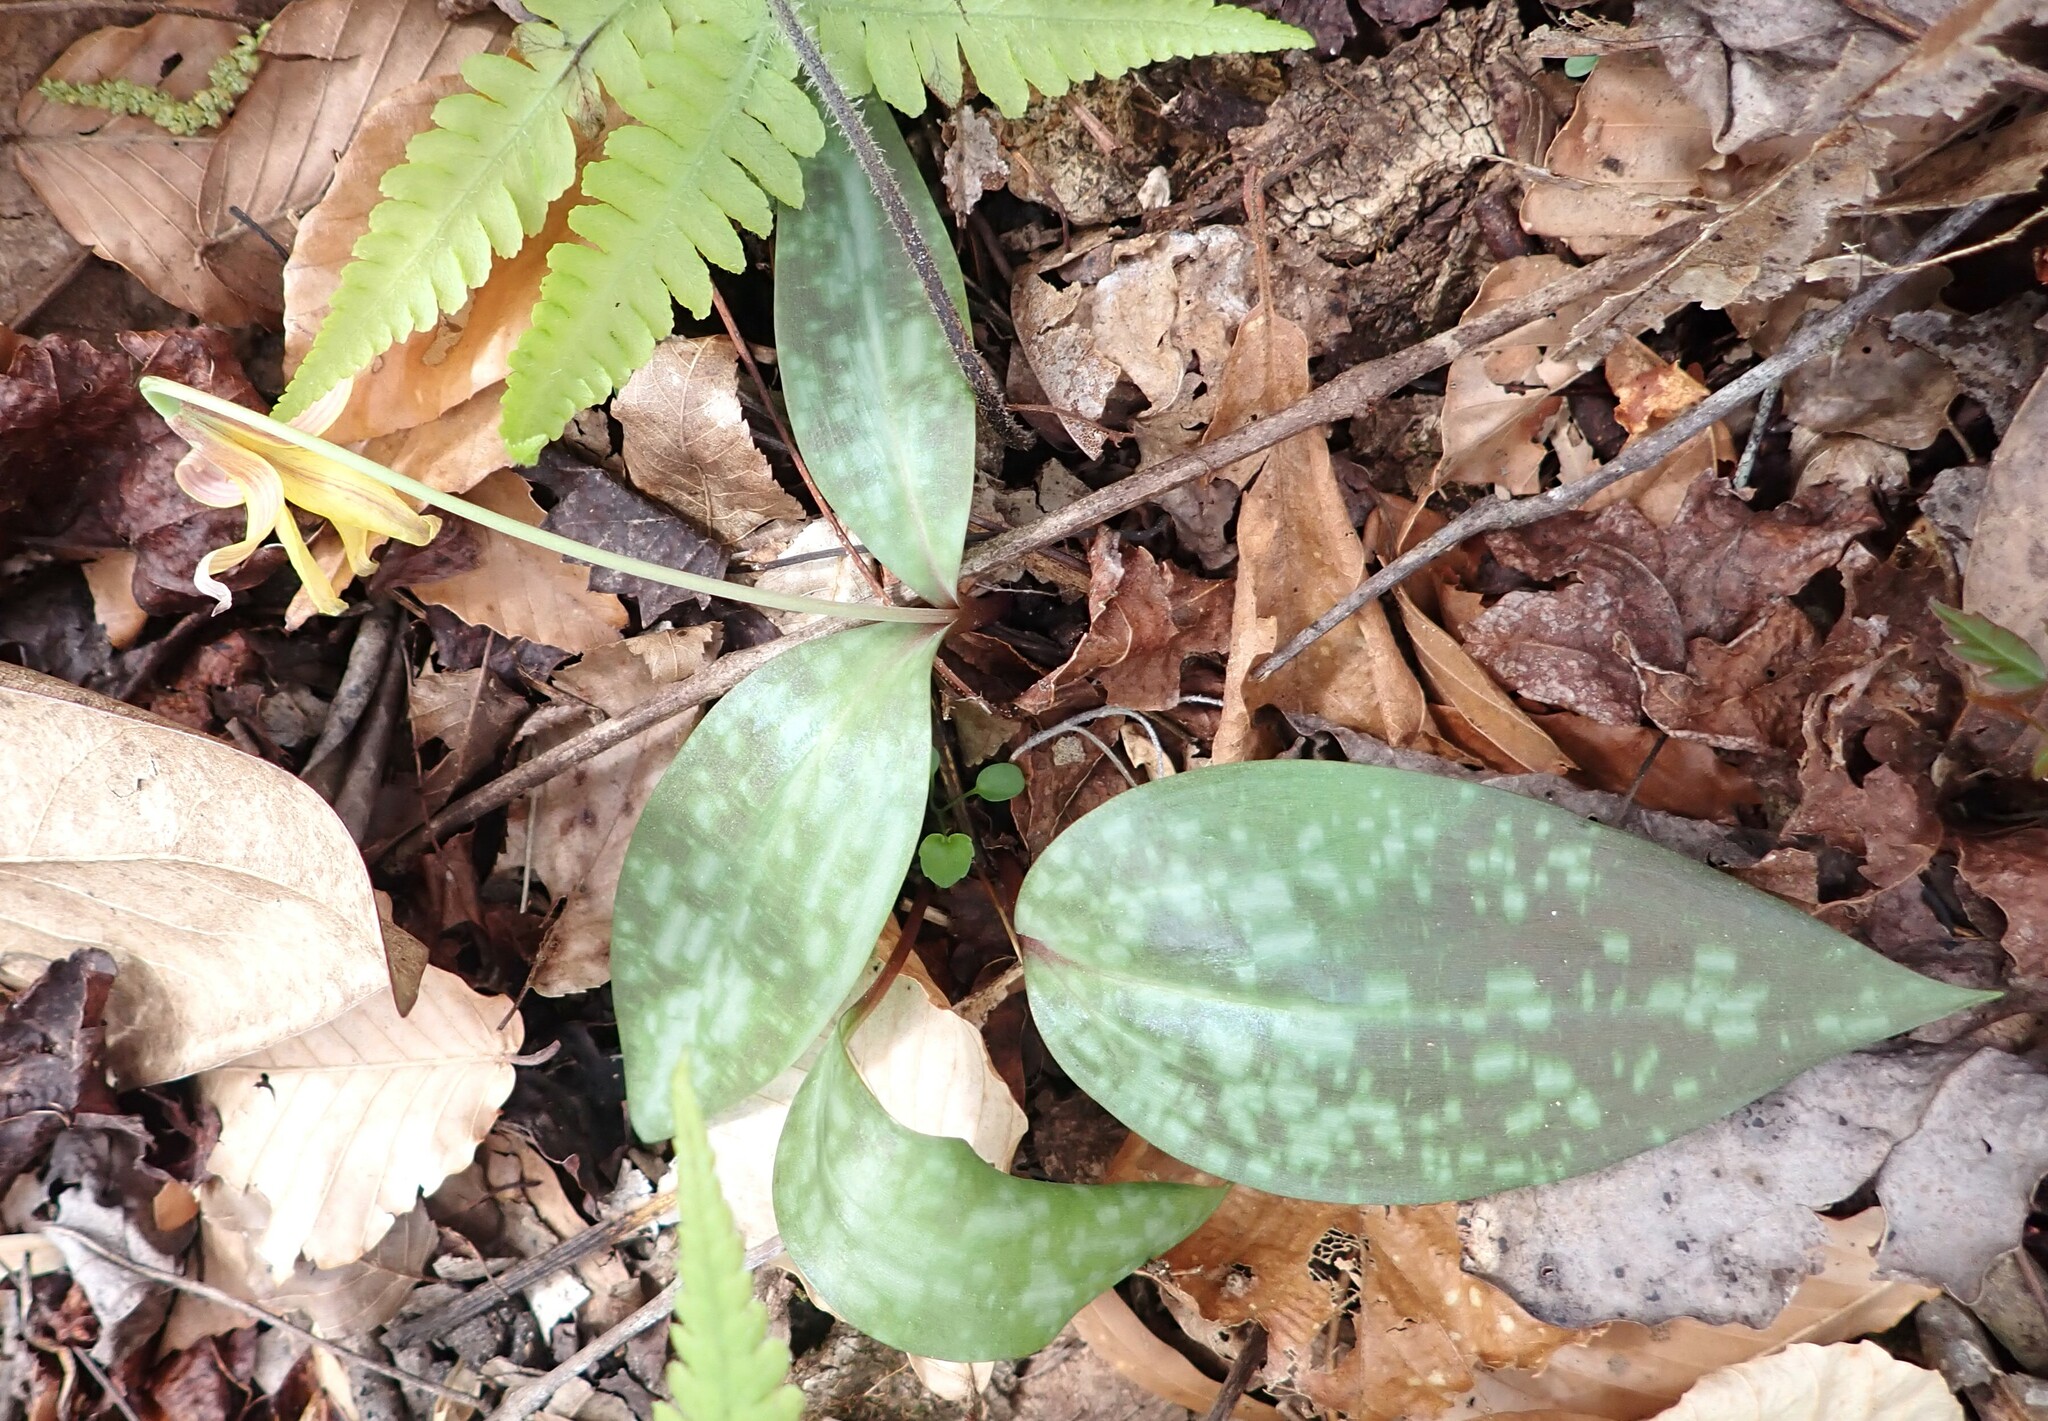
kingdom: Plantae
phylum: Tracheophyta
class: Liliopsida
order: Liliales
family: Liliaceae
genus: Erythronium
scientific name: Erythronium umbilicatum
